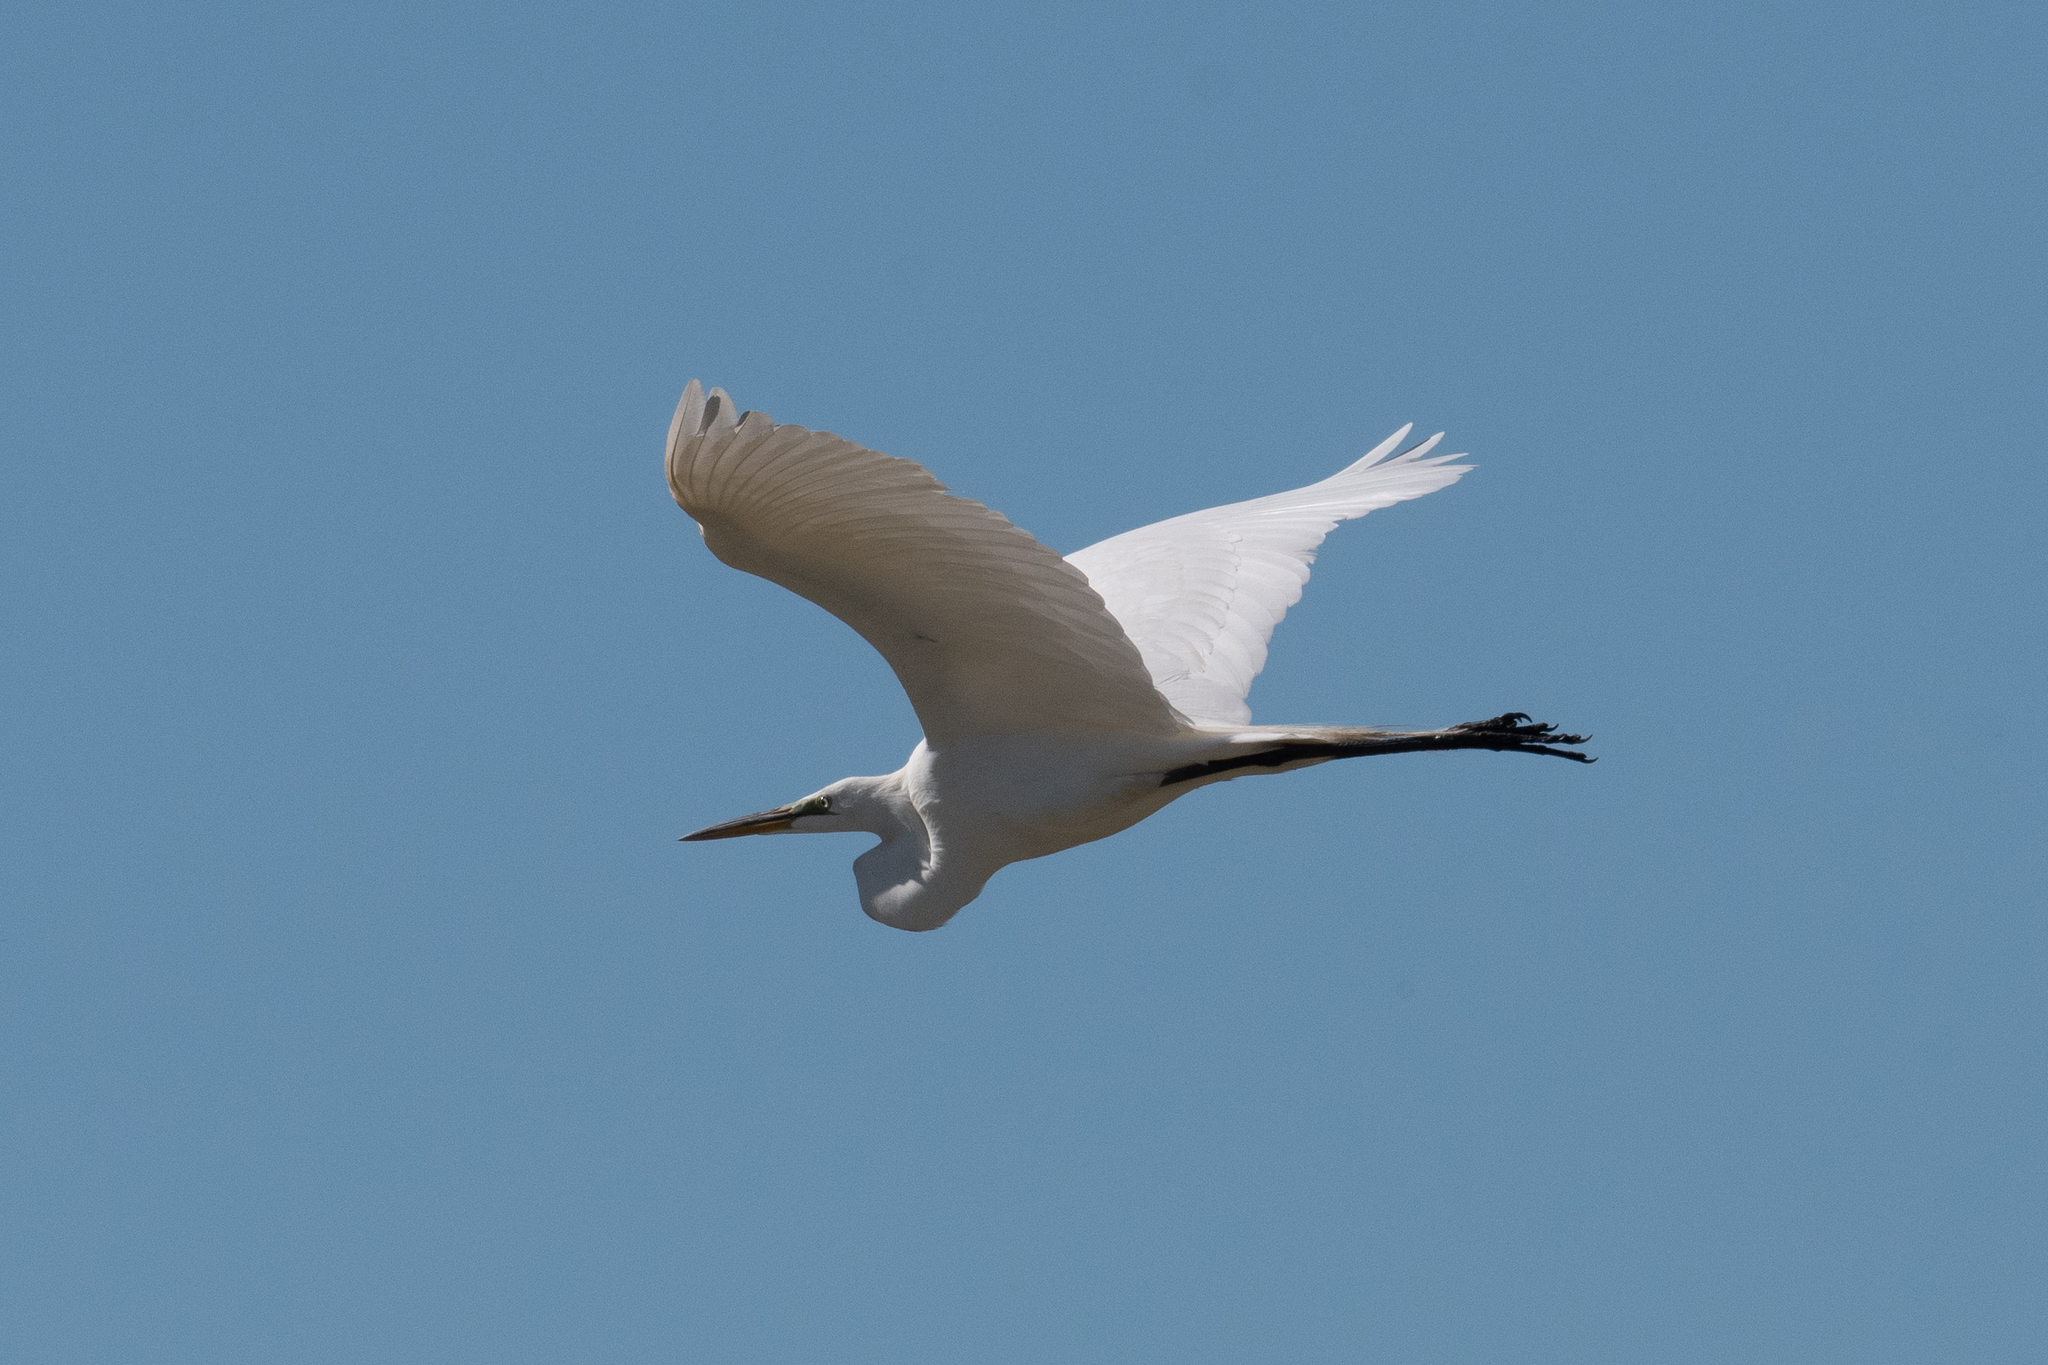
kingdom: Animalia
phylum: Chordata
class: Aves
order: Pelecaniformes
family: Ardeidae
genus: Ardea
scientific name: Ardea alba
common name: Great egret
